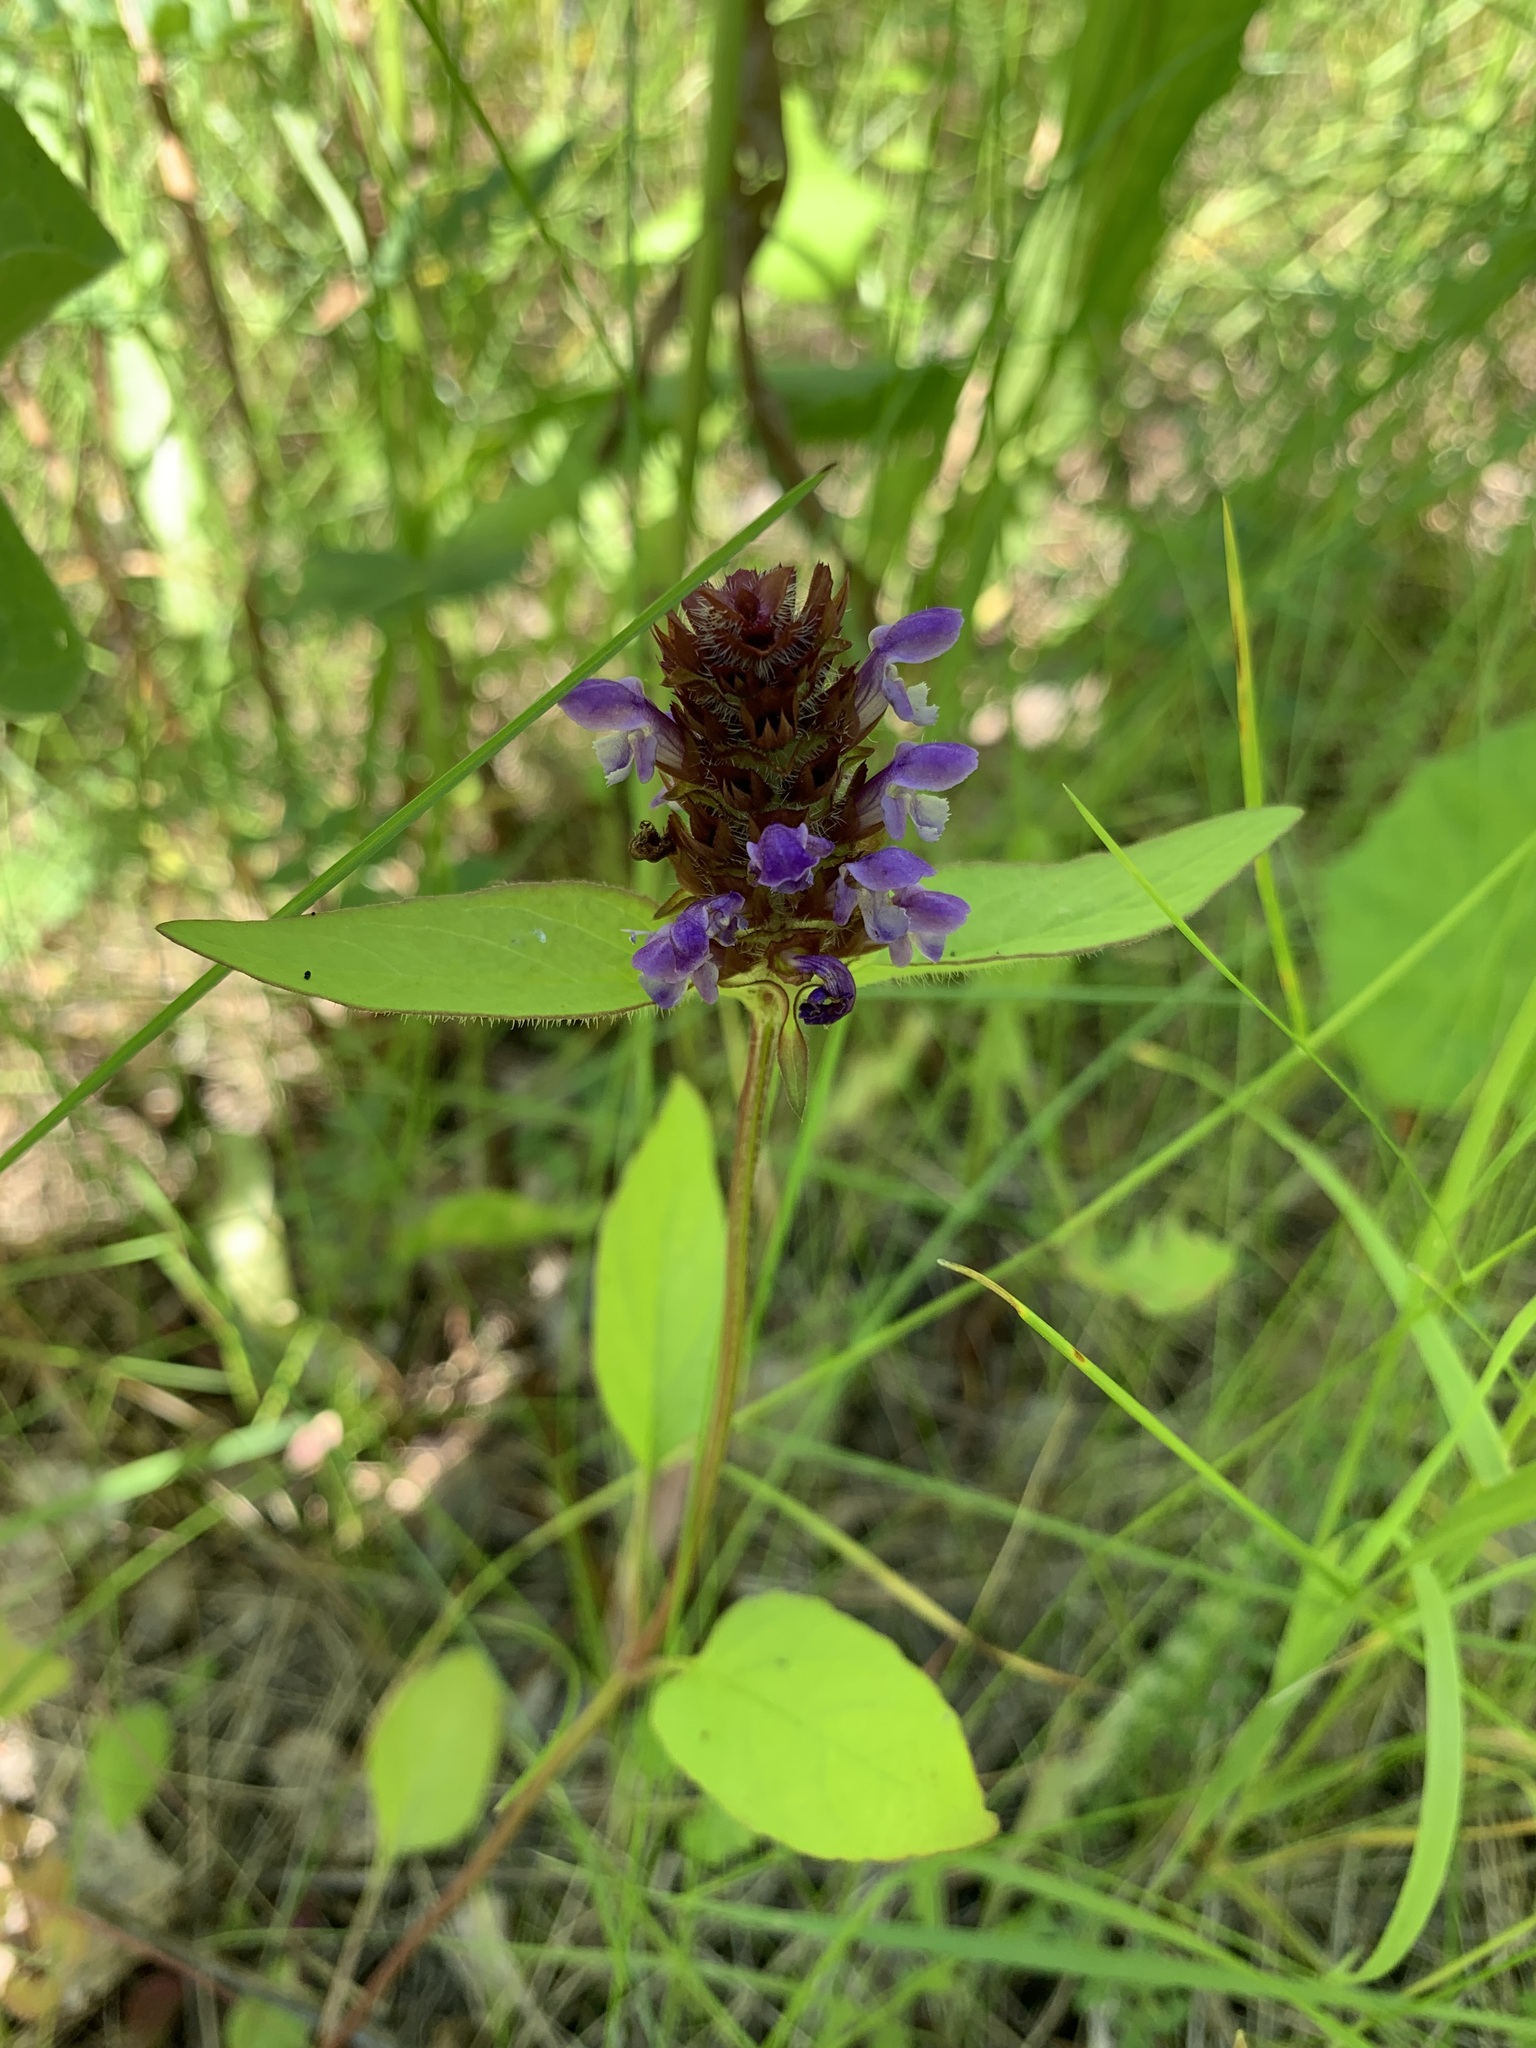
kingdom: Plantae
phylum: Tracheophyta
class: Magnoliopsida
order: Lamiales
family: Lamiaceae
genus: Prunella
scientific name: Prunella vulgaris
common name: Heal-all
